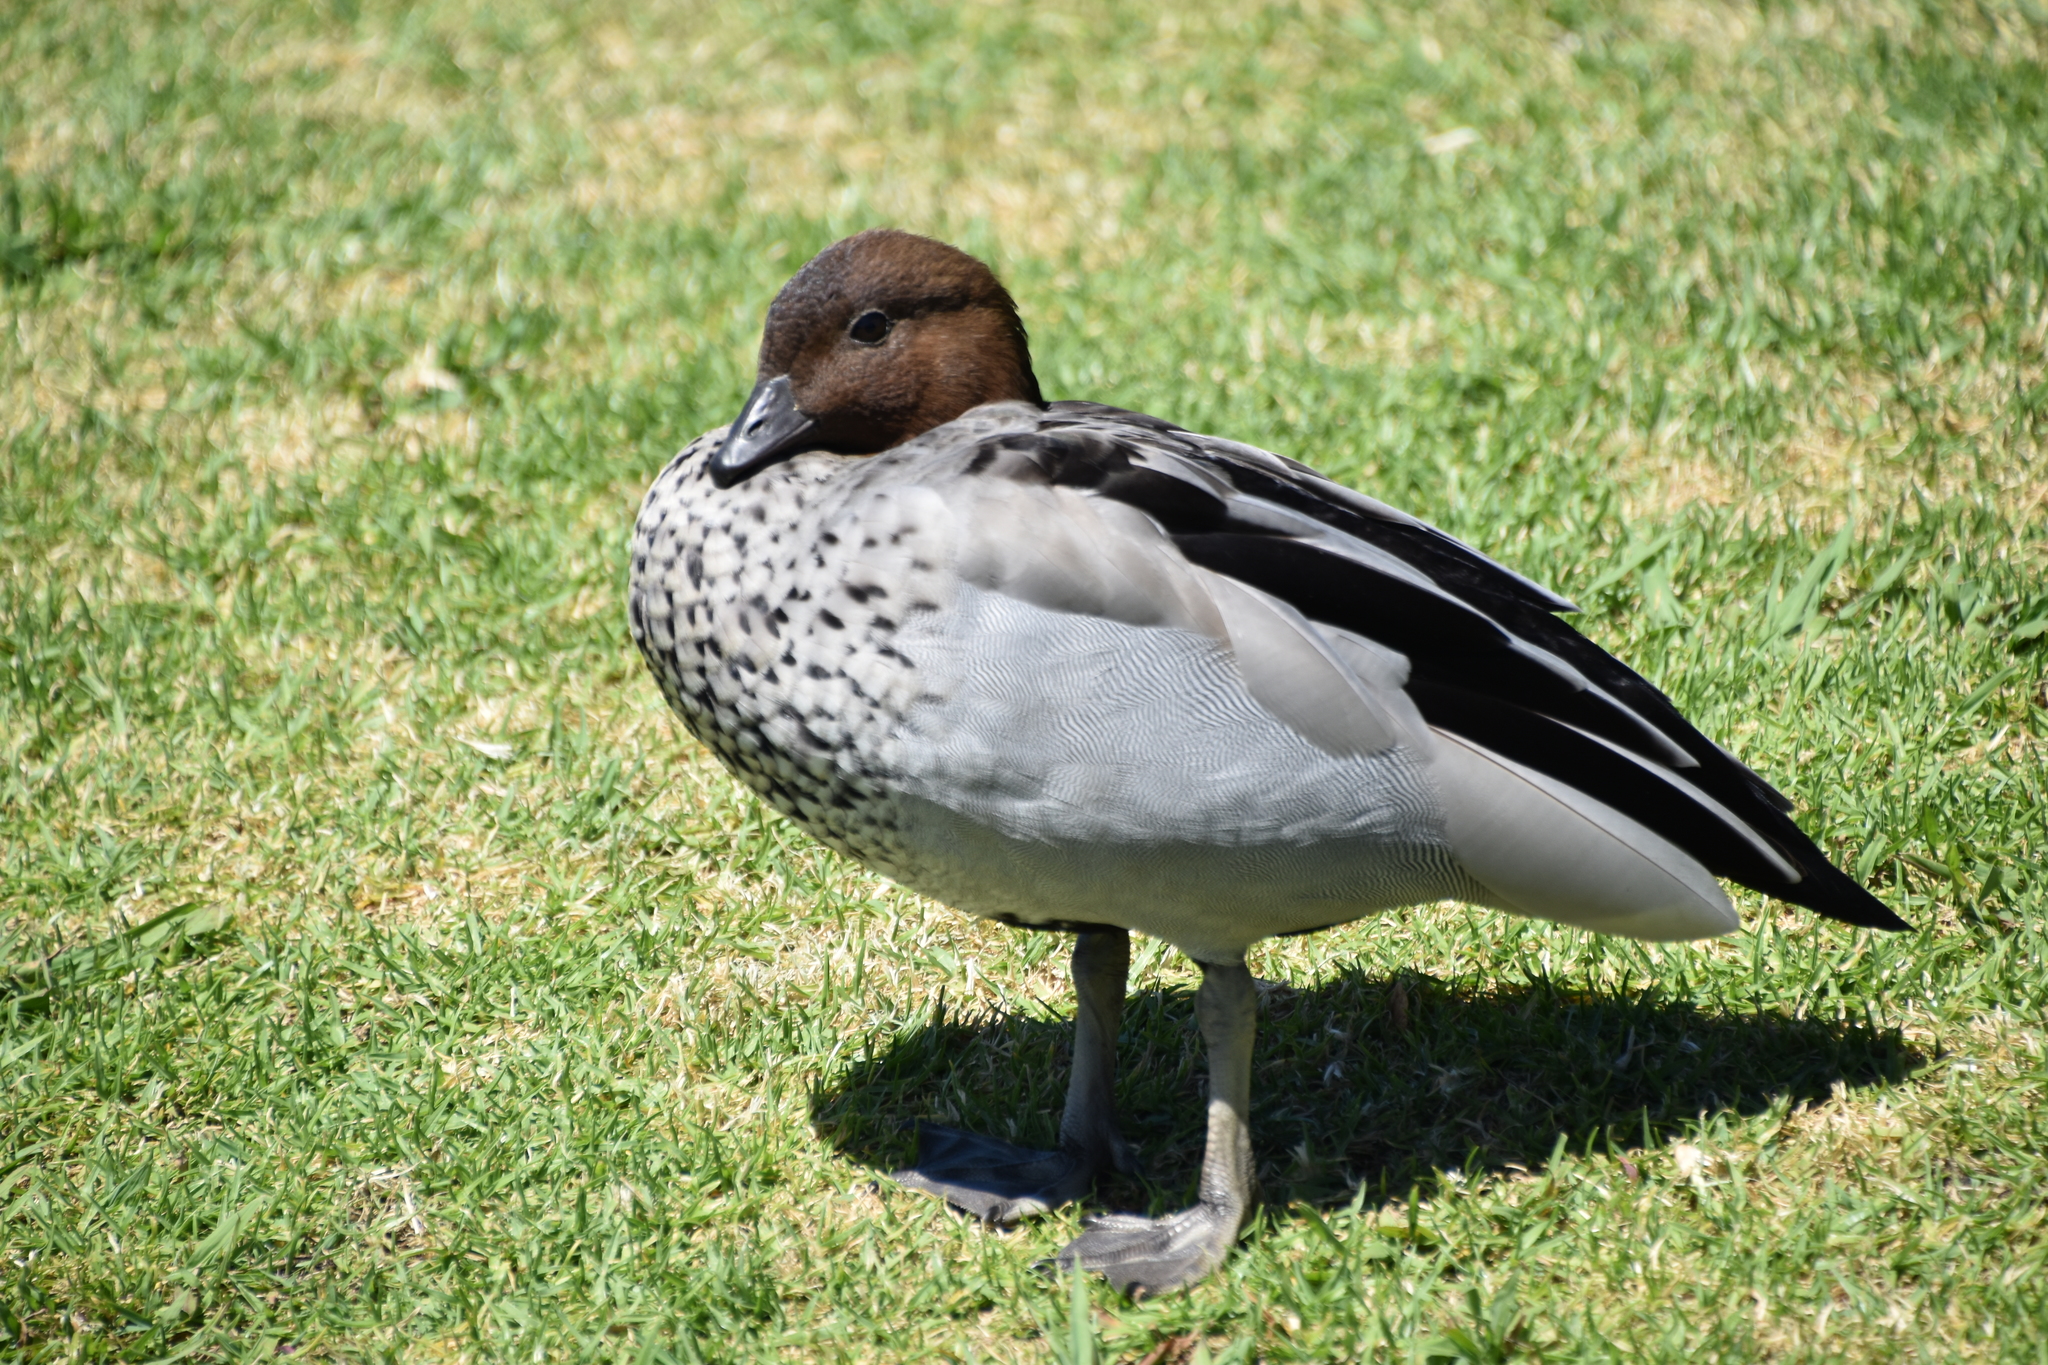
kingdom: Animalia
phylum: Chordata
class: Aves
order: Anseriformes
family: Anatidae
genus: Chenonetta
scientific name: Chenonetta jubata
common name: Maned duck
